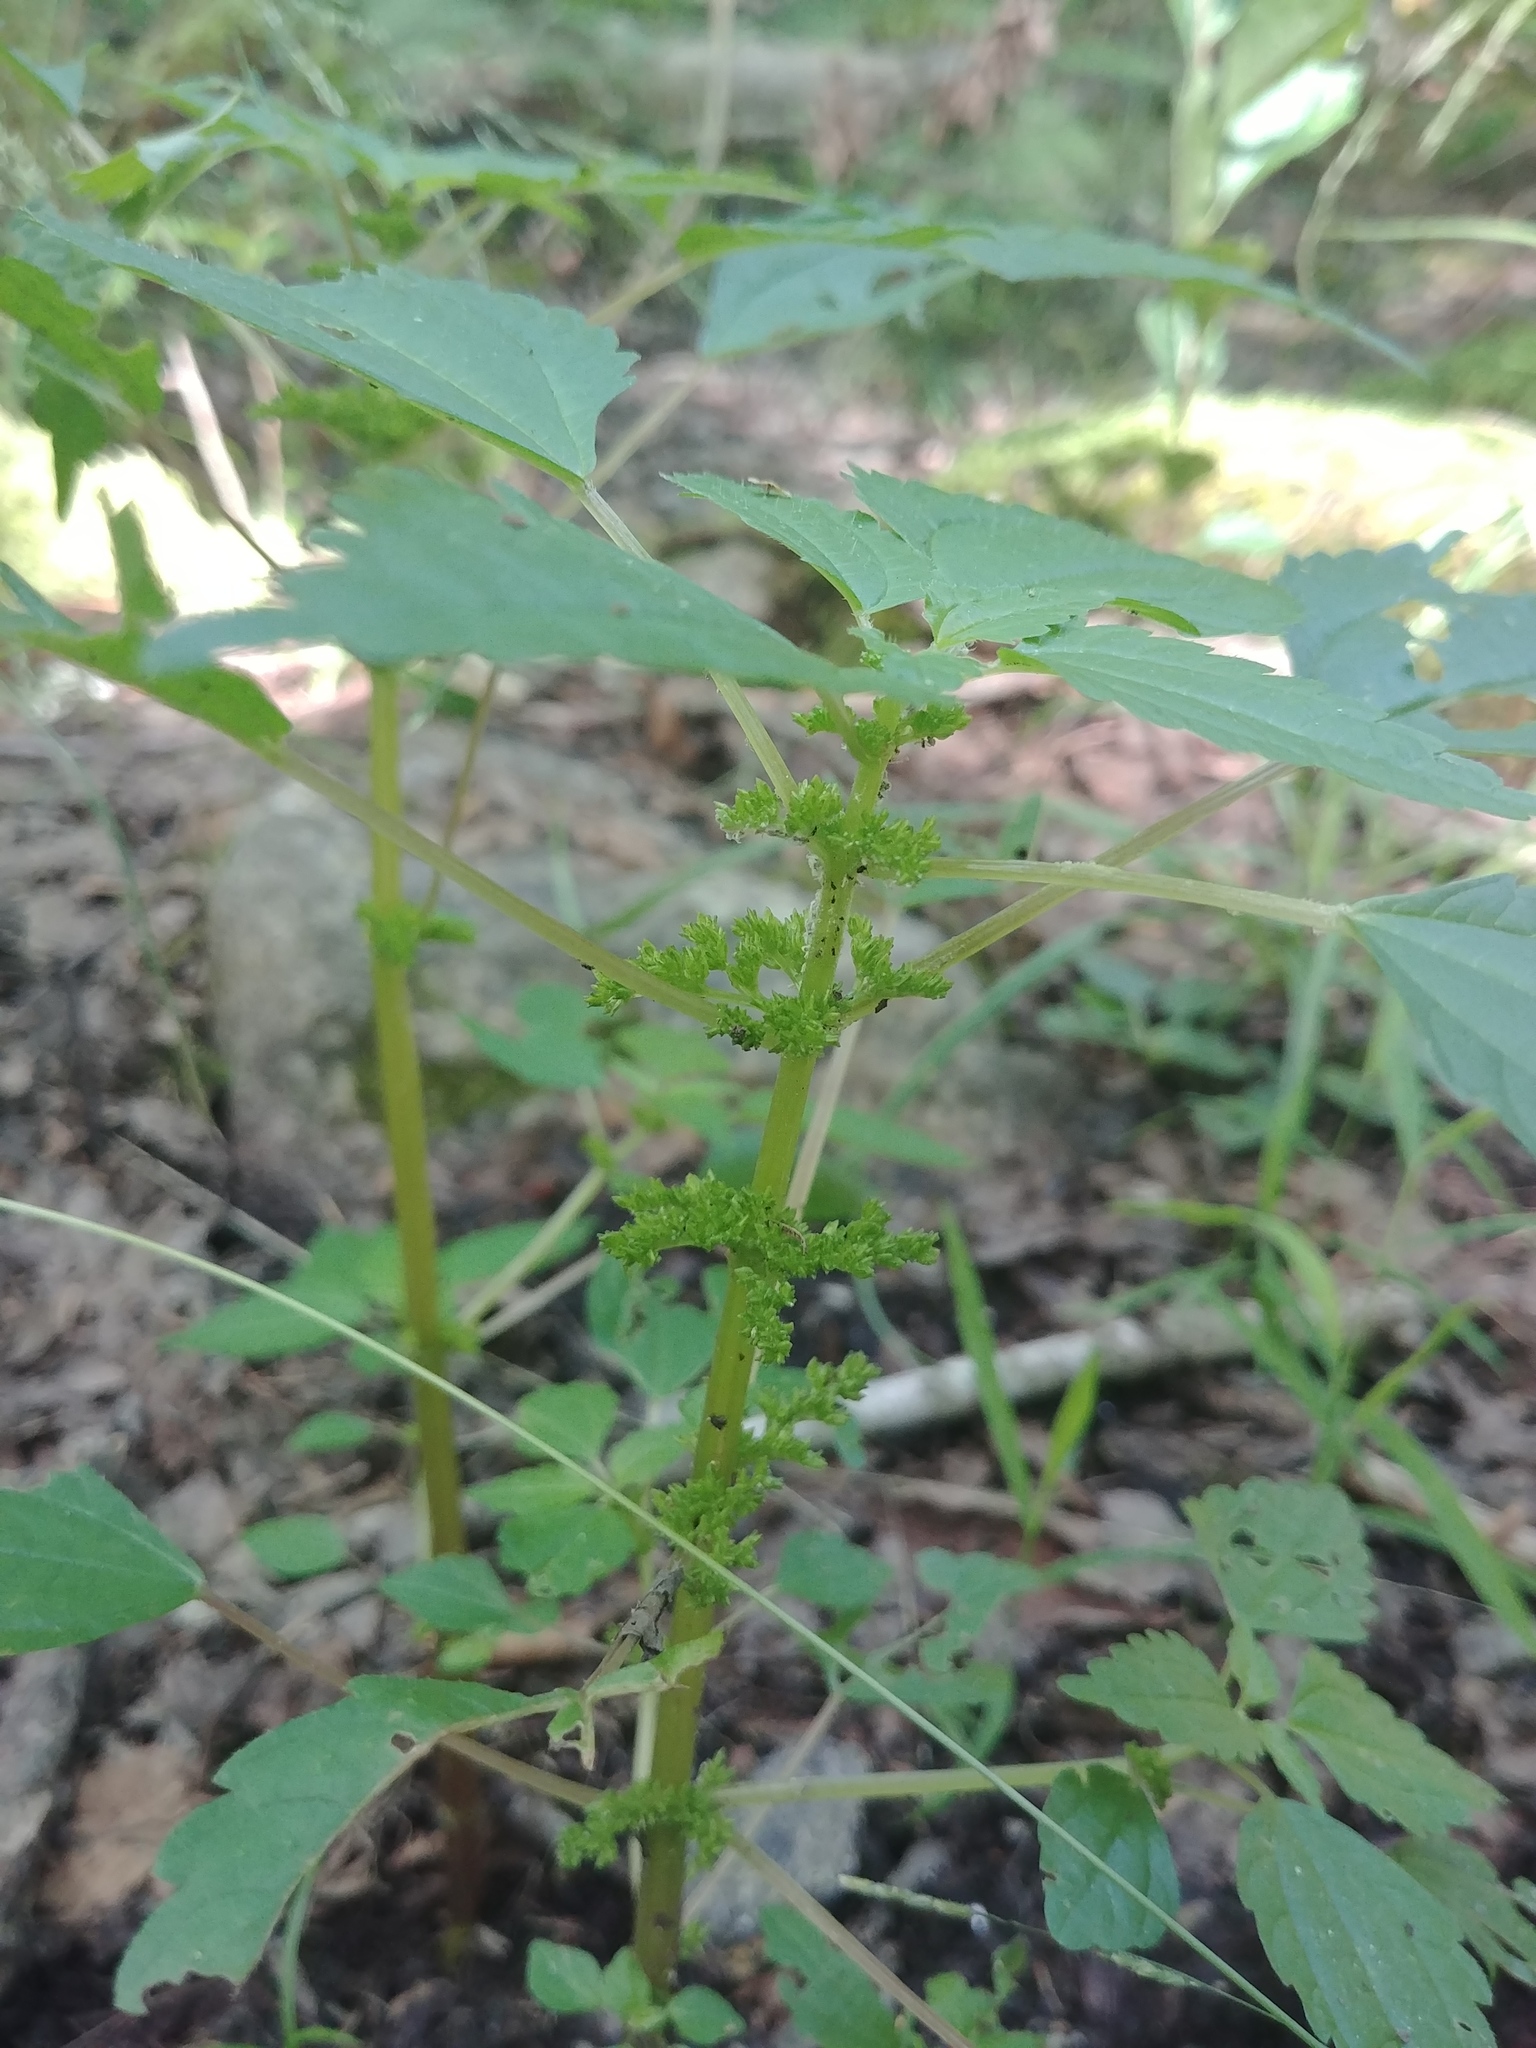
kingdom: Plantae
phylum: Tracheophyta
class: Magnoliopsida
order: Rosales
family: Urticaceae
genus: Pilea
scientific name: Pilea pumila
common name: Clearweed
